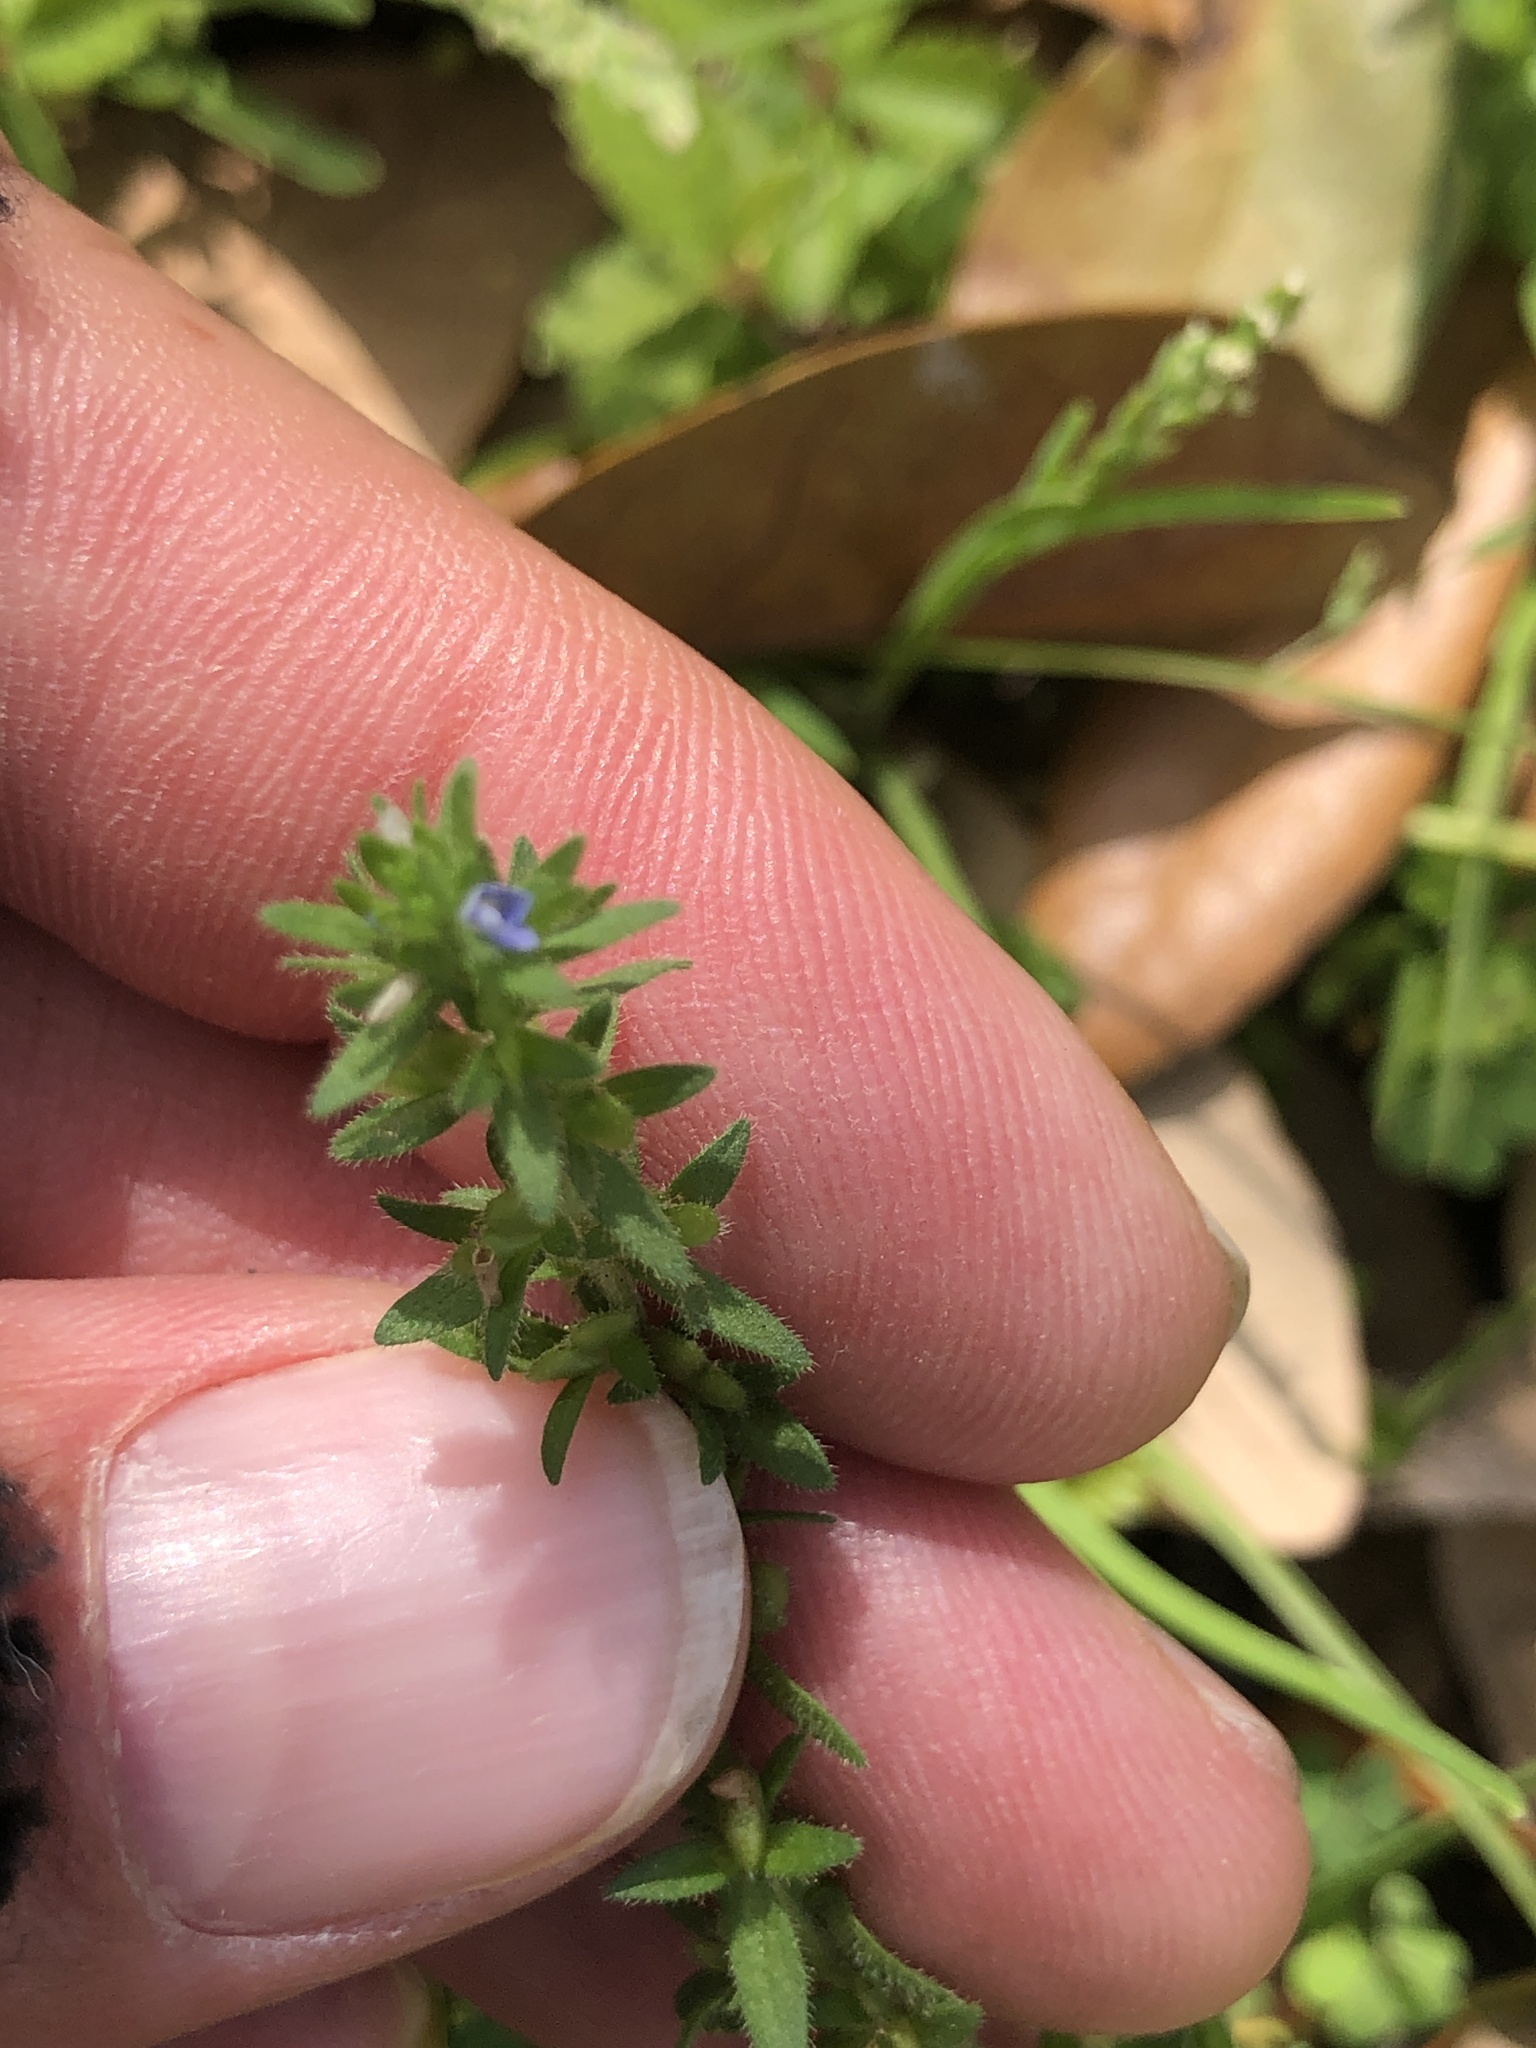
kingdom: Plantae
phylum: Tracheophyta
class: Magnoliopsida
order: Lamiales
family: Plantaginaceae
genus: Veronica
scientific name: Veronica arvensis
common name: Corn speedwell
